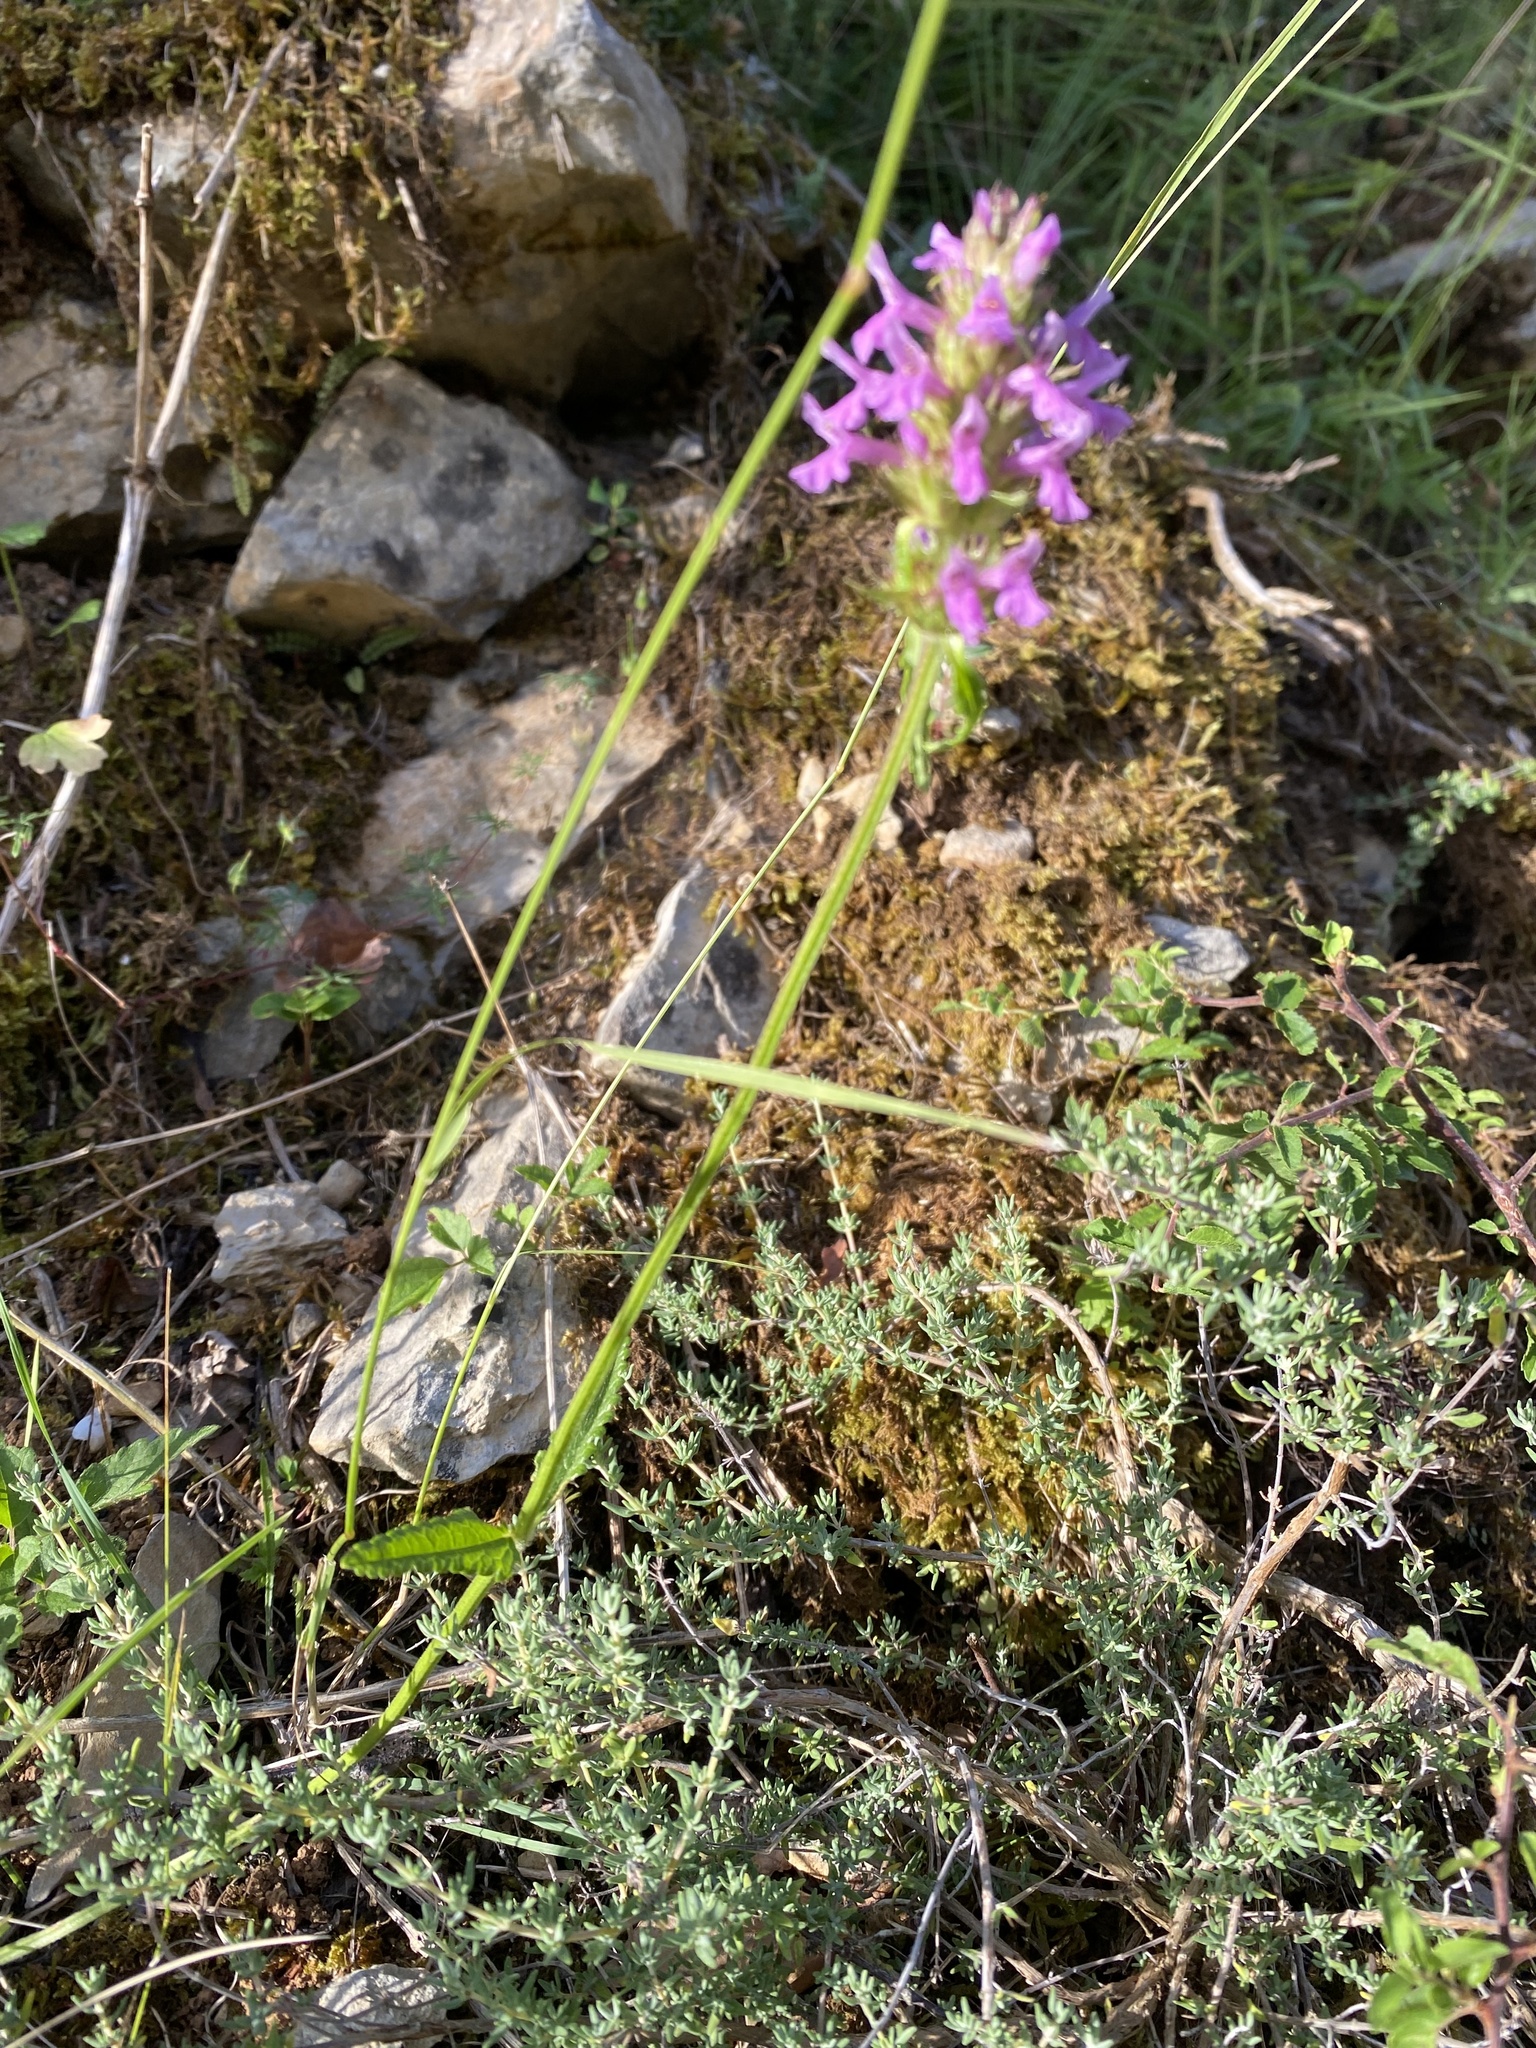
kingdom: Plantae
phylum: Tracheophyta
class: Magnoliopsida
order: Lamiales
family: Lamiaceae
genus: Betonica
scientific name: Betonica officinalis
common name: Bishop's-wort
